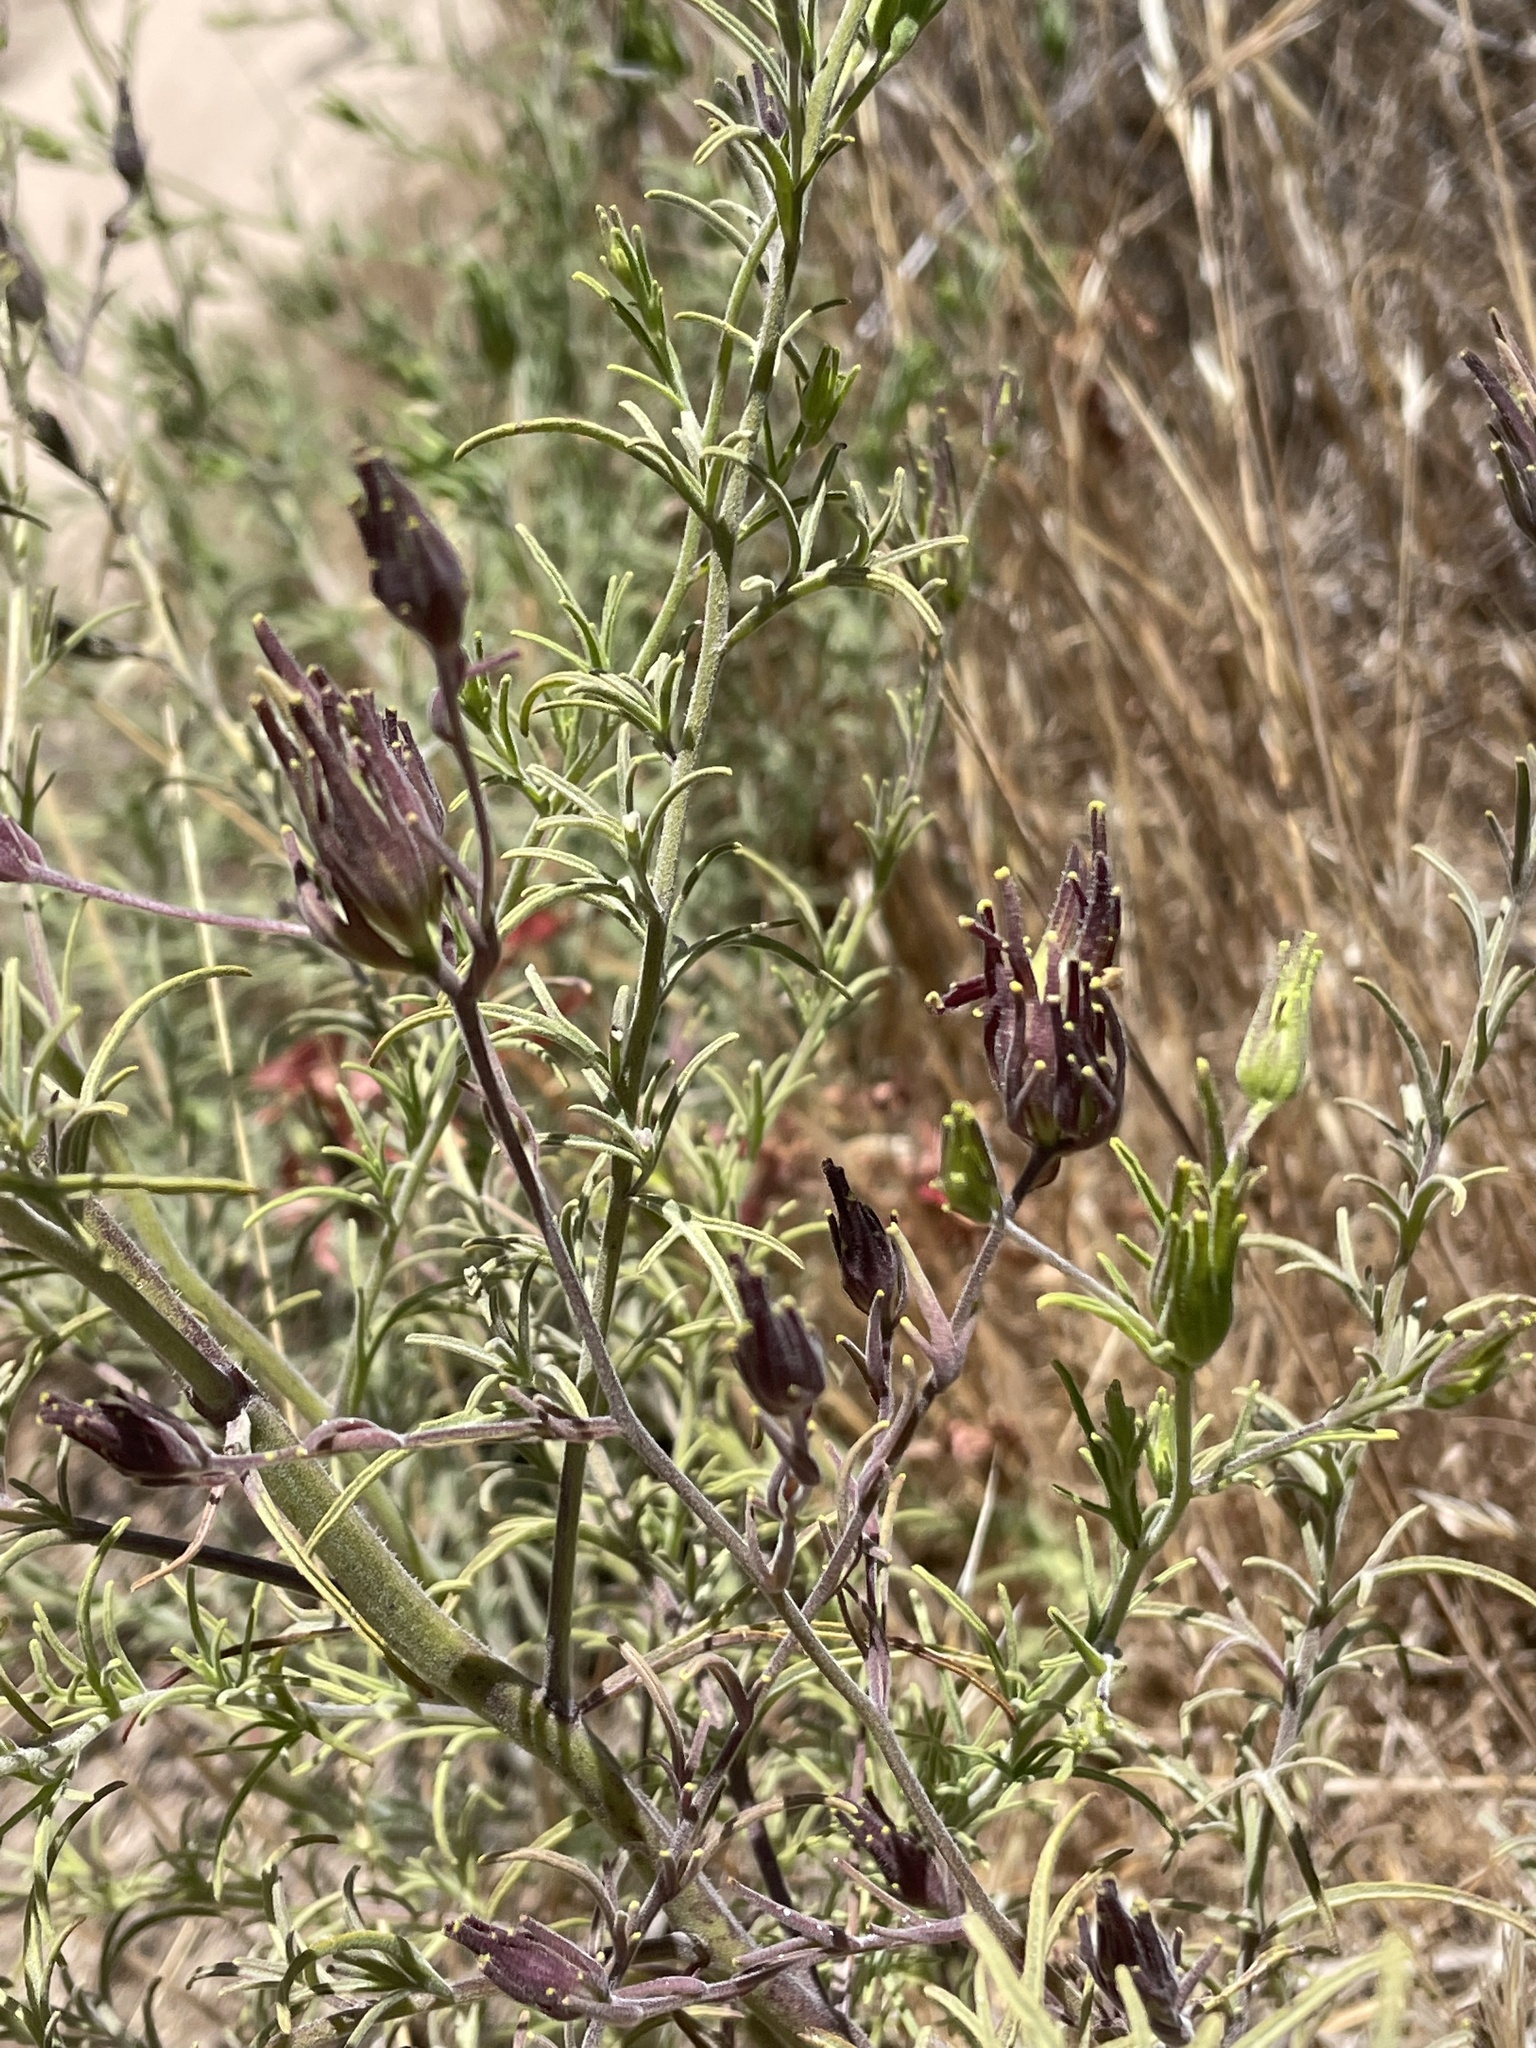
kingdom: Plantae
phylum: Tracheophyta
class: Magnoliopsida
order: Lamiales
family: Orobanchaceae
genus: Cordylanthus
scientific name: Cordylanthus rigidus
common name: Stiff-branch bird's-beak
